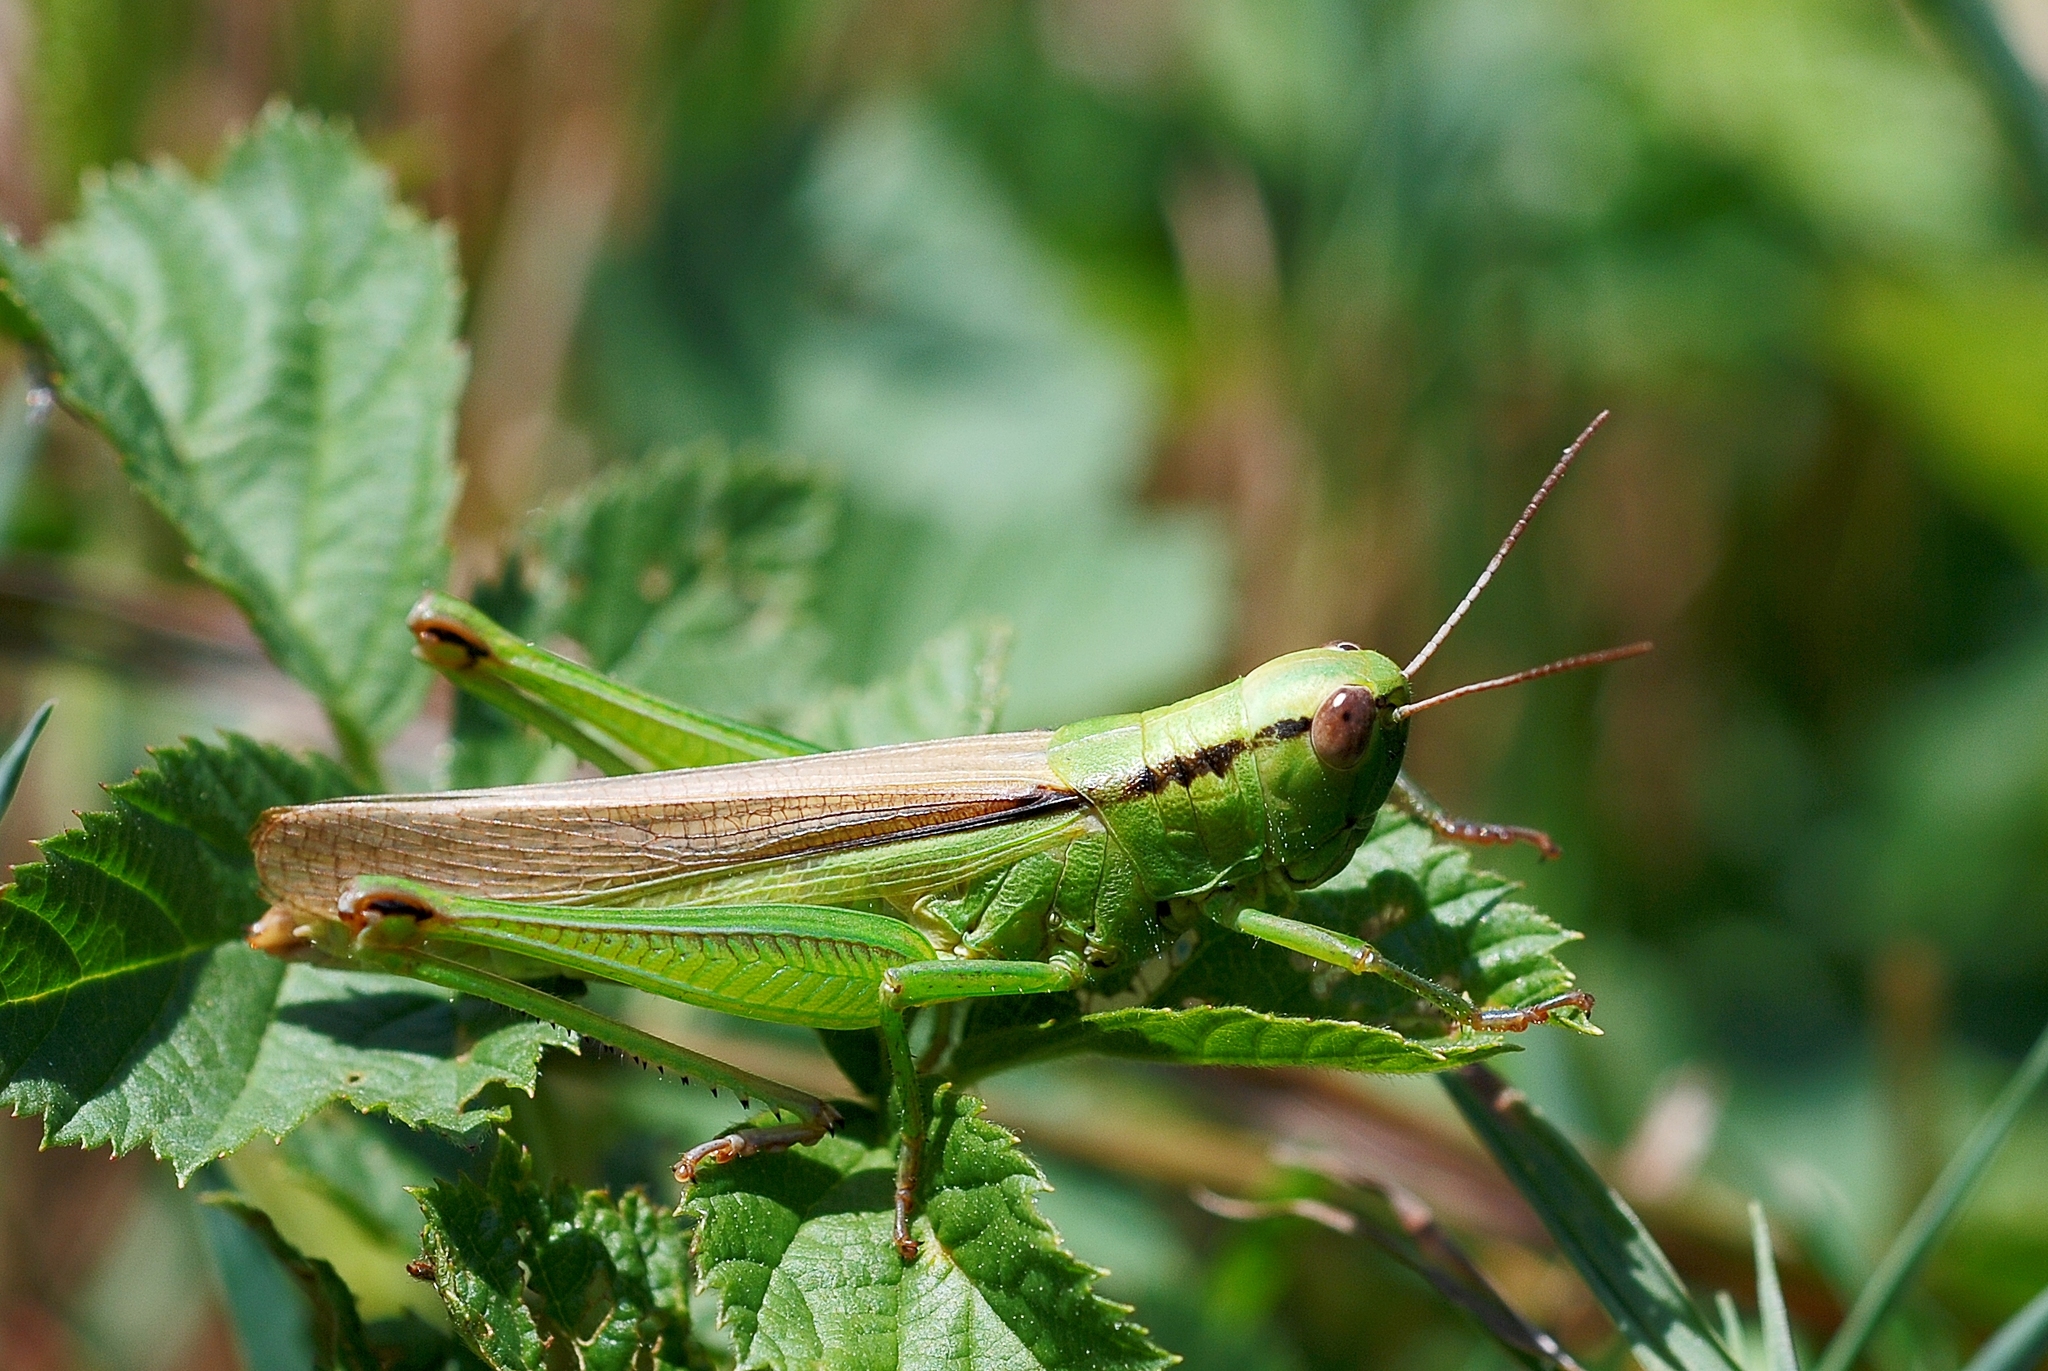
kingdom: Animalia
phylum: Arthropoda
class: Insecta
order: Orthoptera
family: Acrididae
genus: Mecostethus
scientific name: Mecostethus parapleurus
